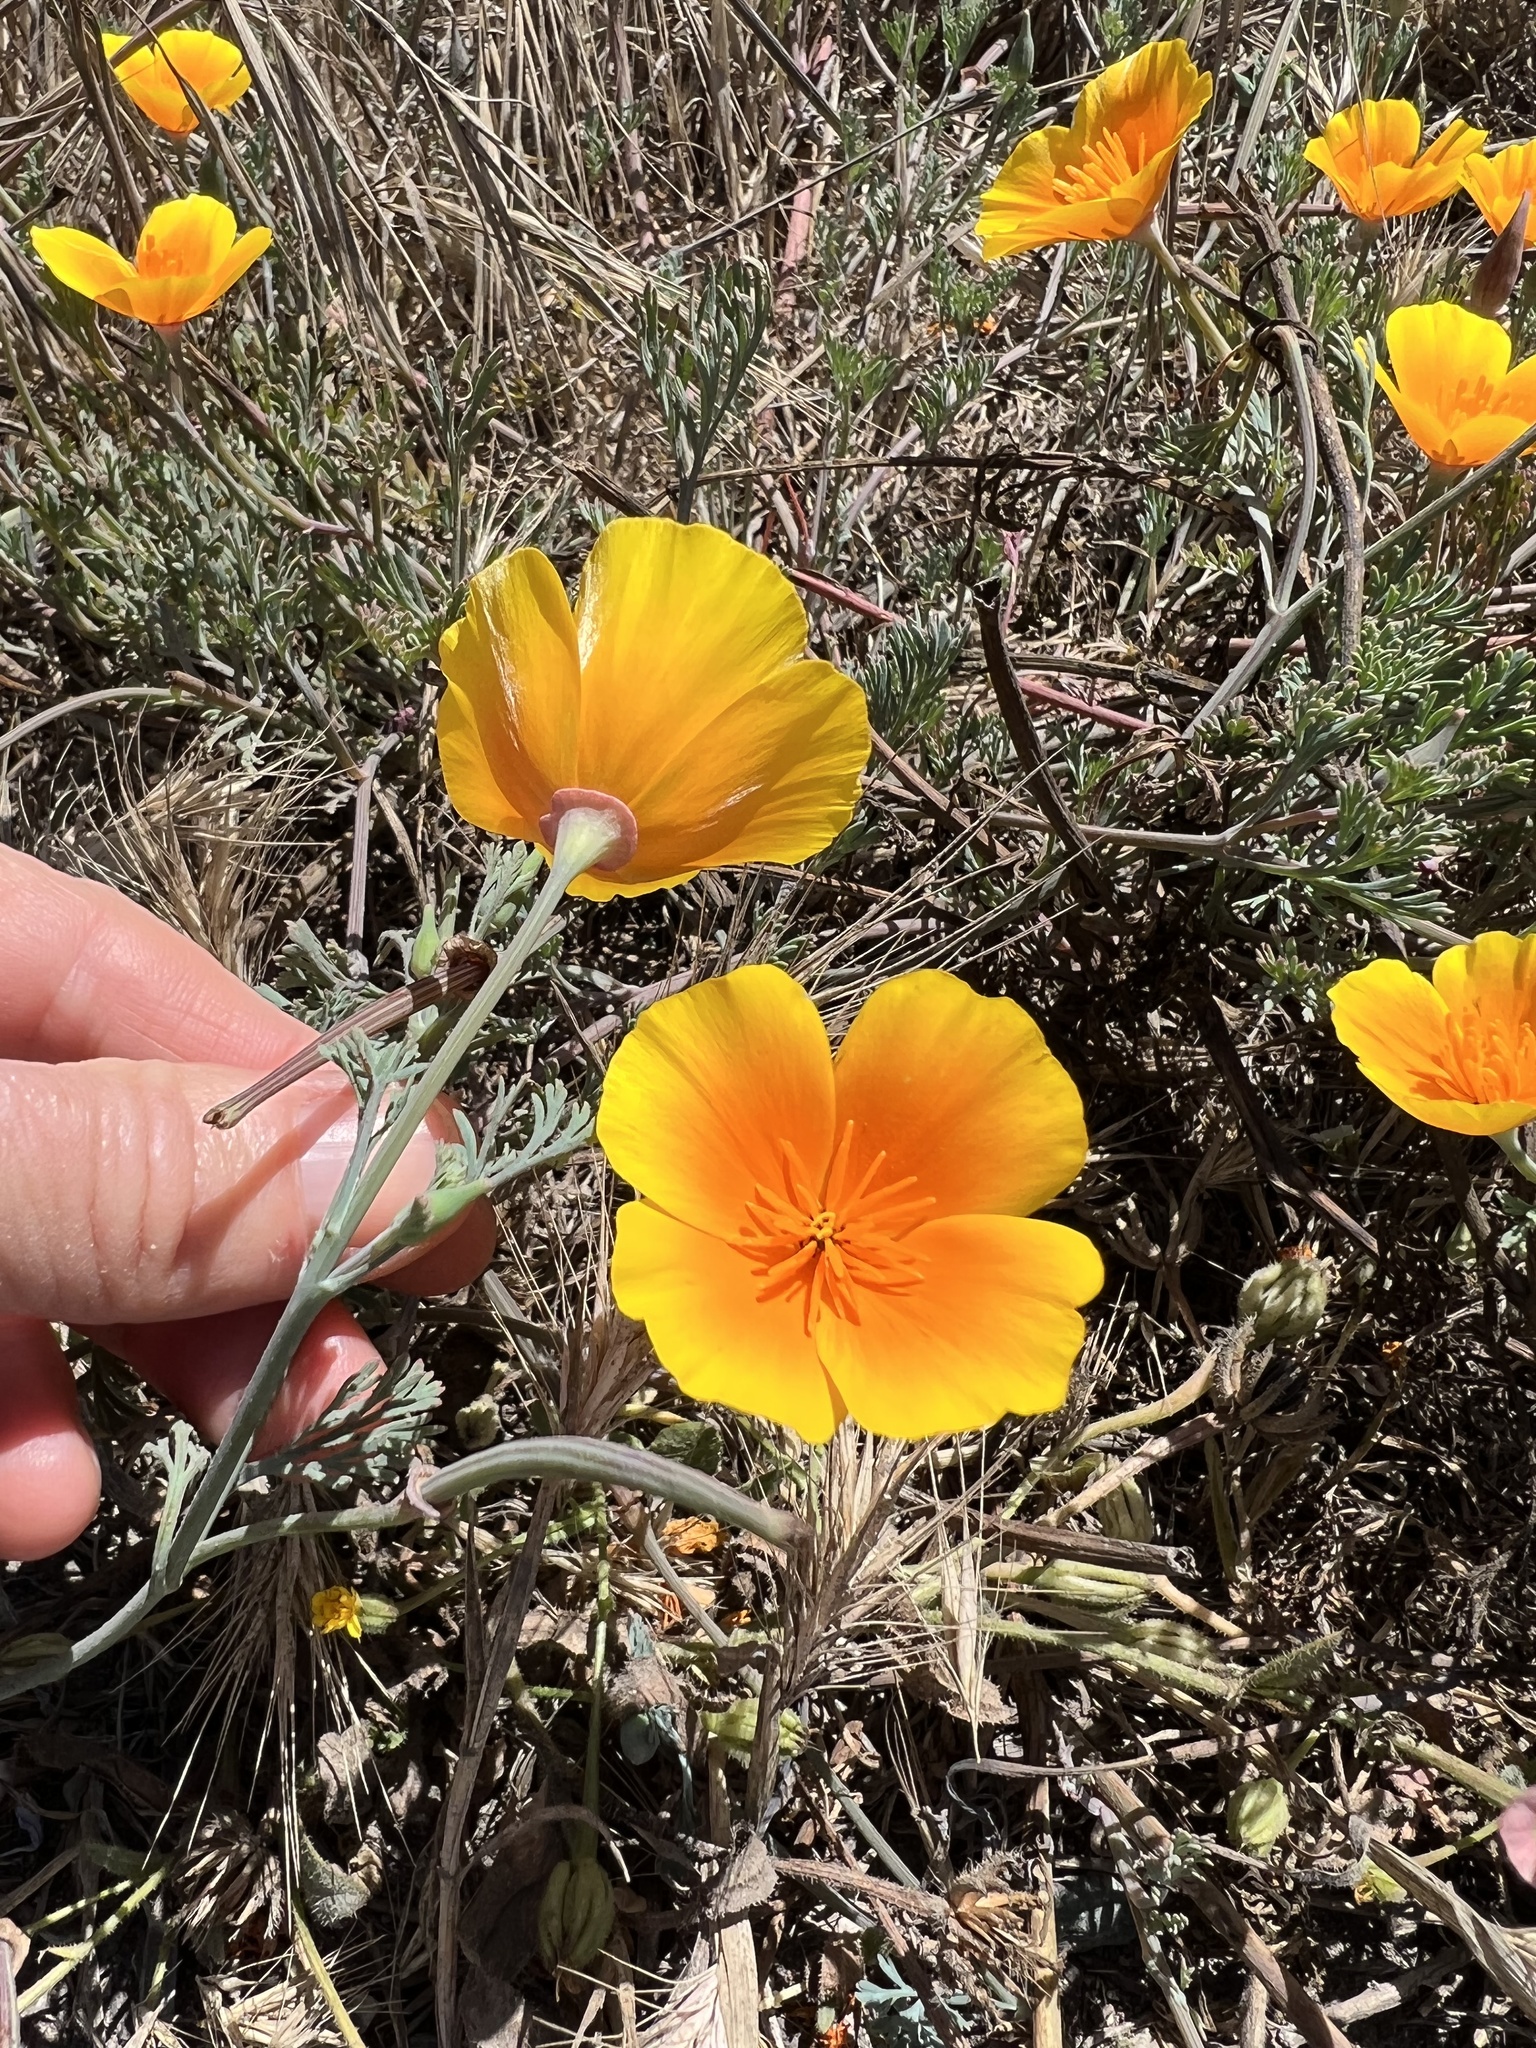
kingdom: Plantae
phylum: Tracheophyta
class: Magnoliopsida
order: Ranunculales
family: Papaveraceae
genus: Eschscholzia
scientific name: Eschscholzia californica
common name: California poppy
